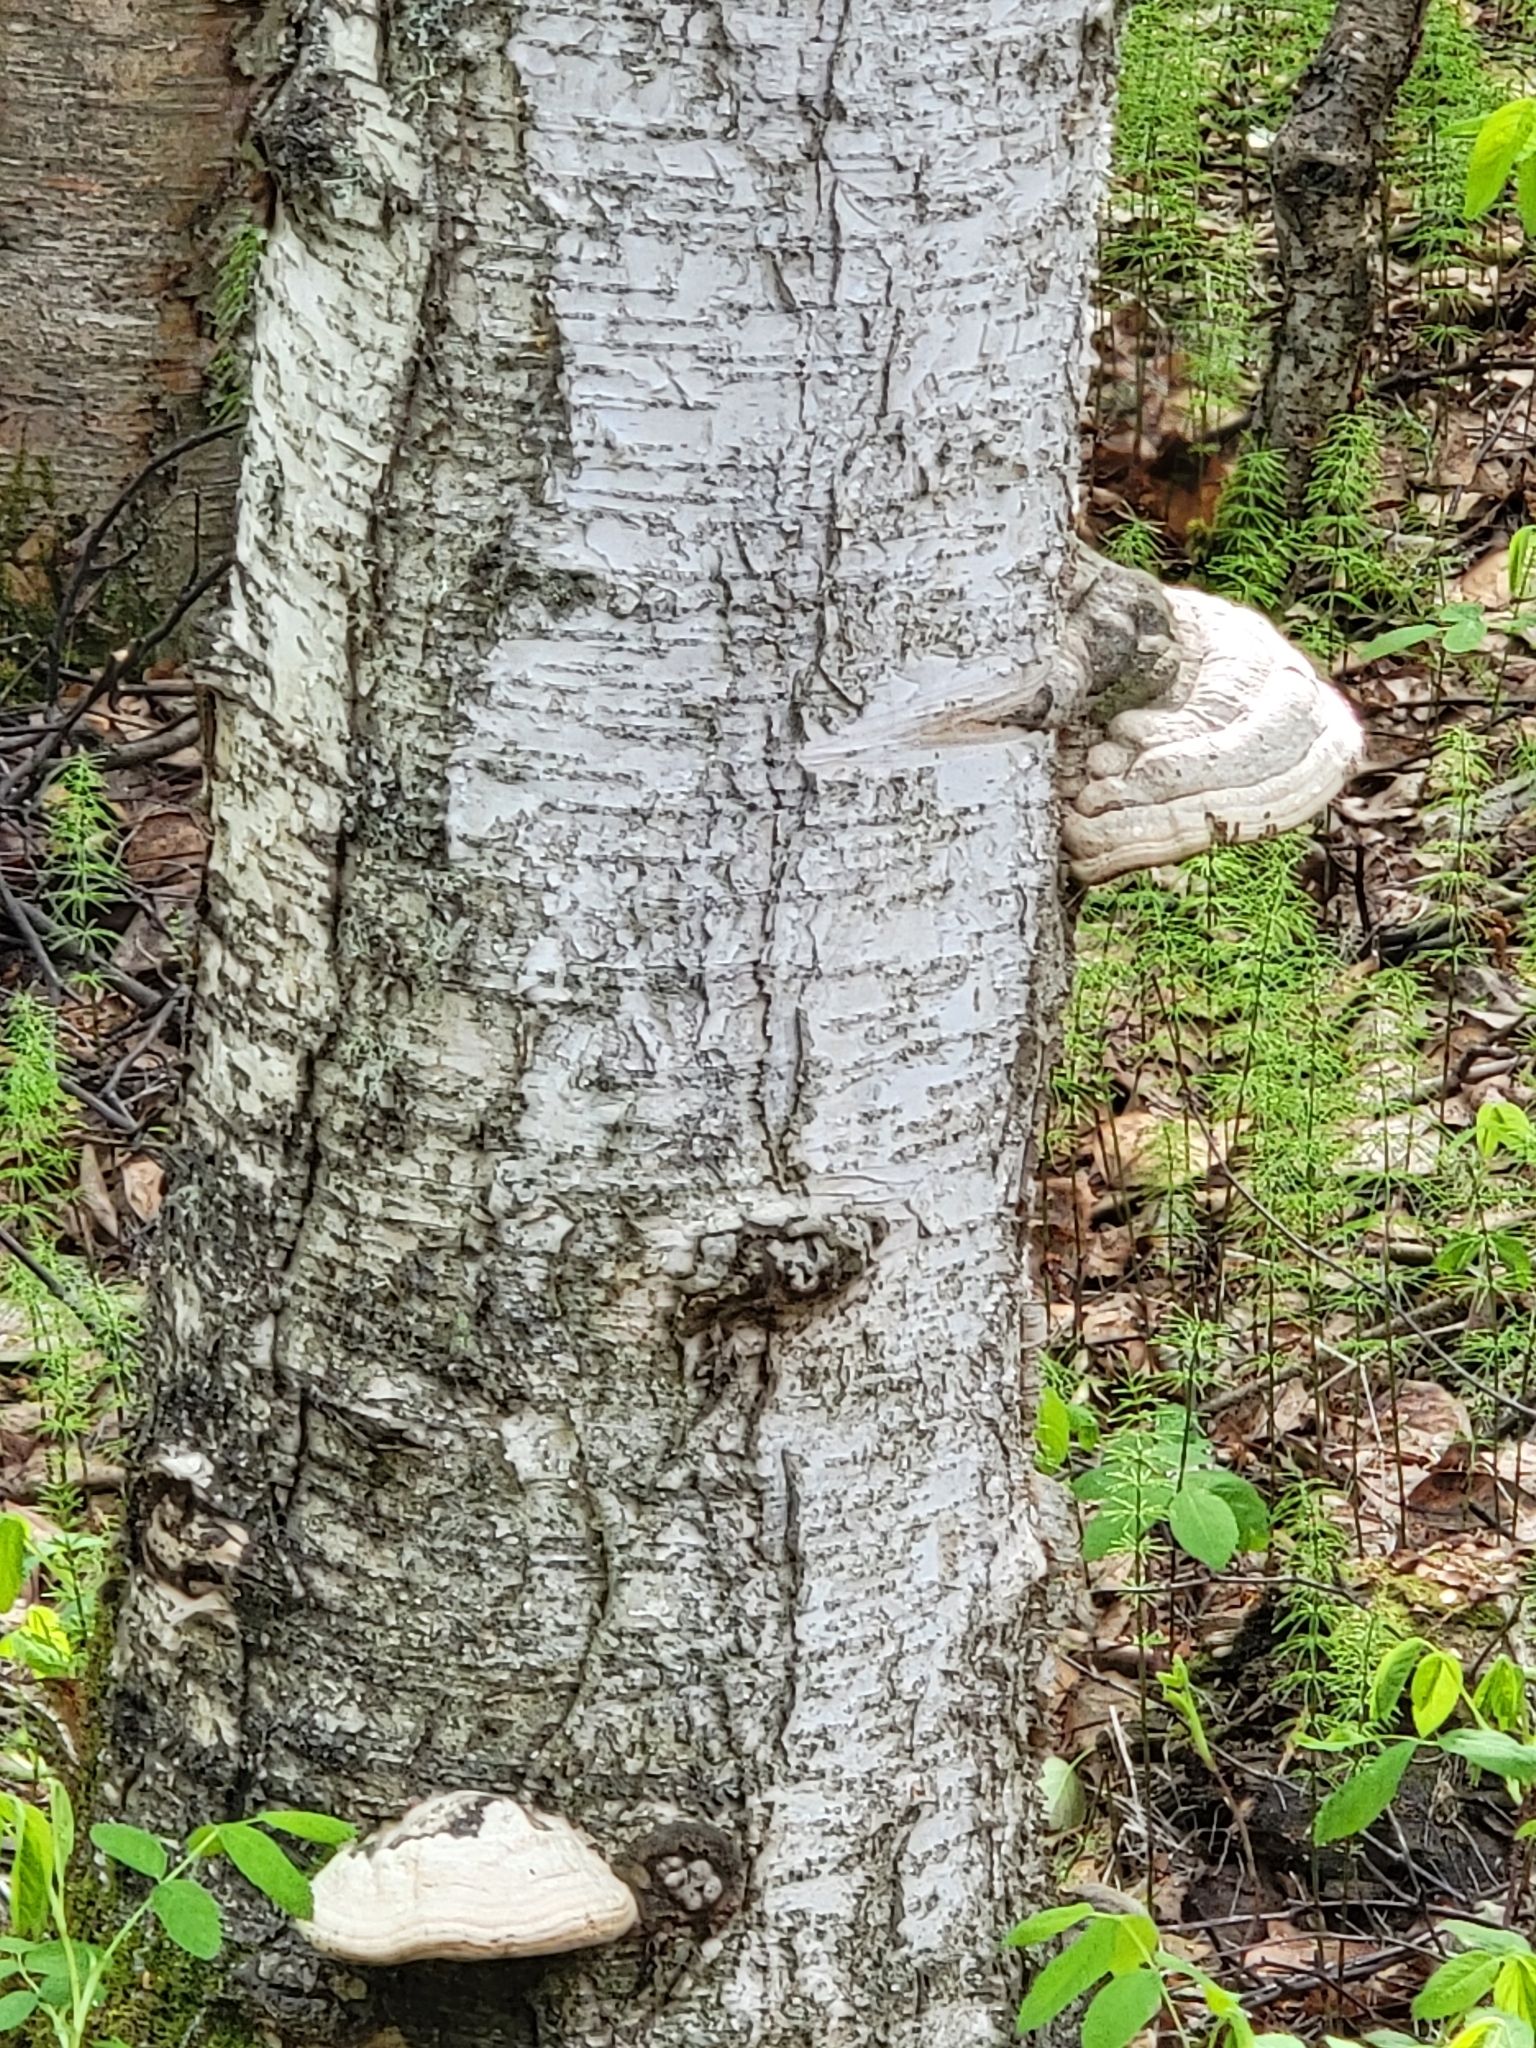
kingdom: Fungi
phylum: Basidiomycota
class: Agaricomycetes
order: Polyporales
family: Polyporaceae
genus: Fomes
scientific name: Fomes fomentarius
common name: Hoof fungus
